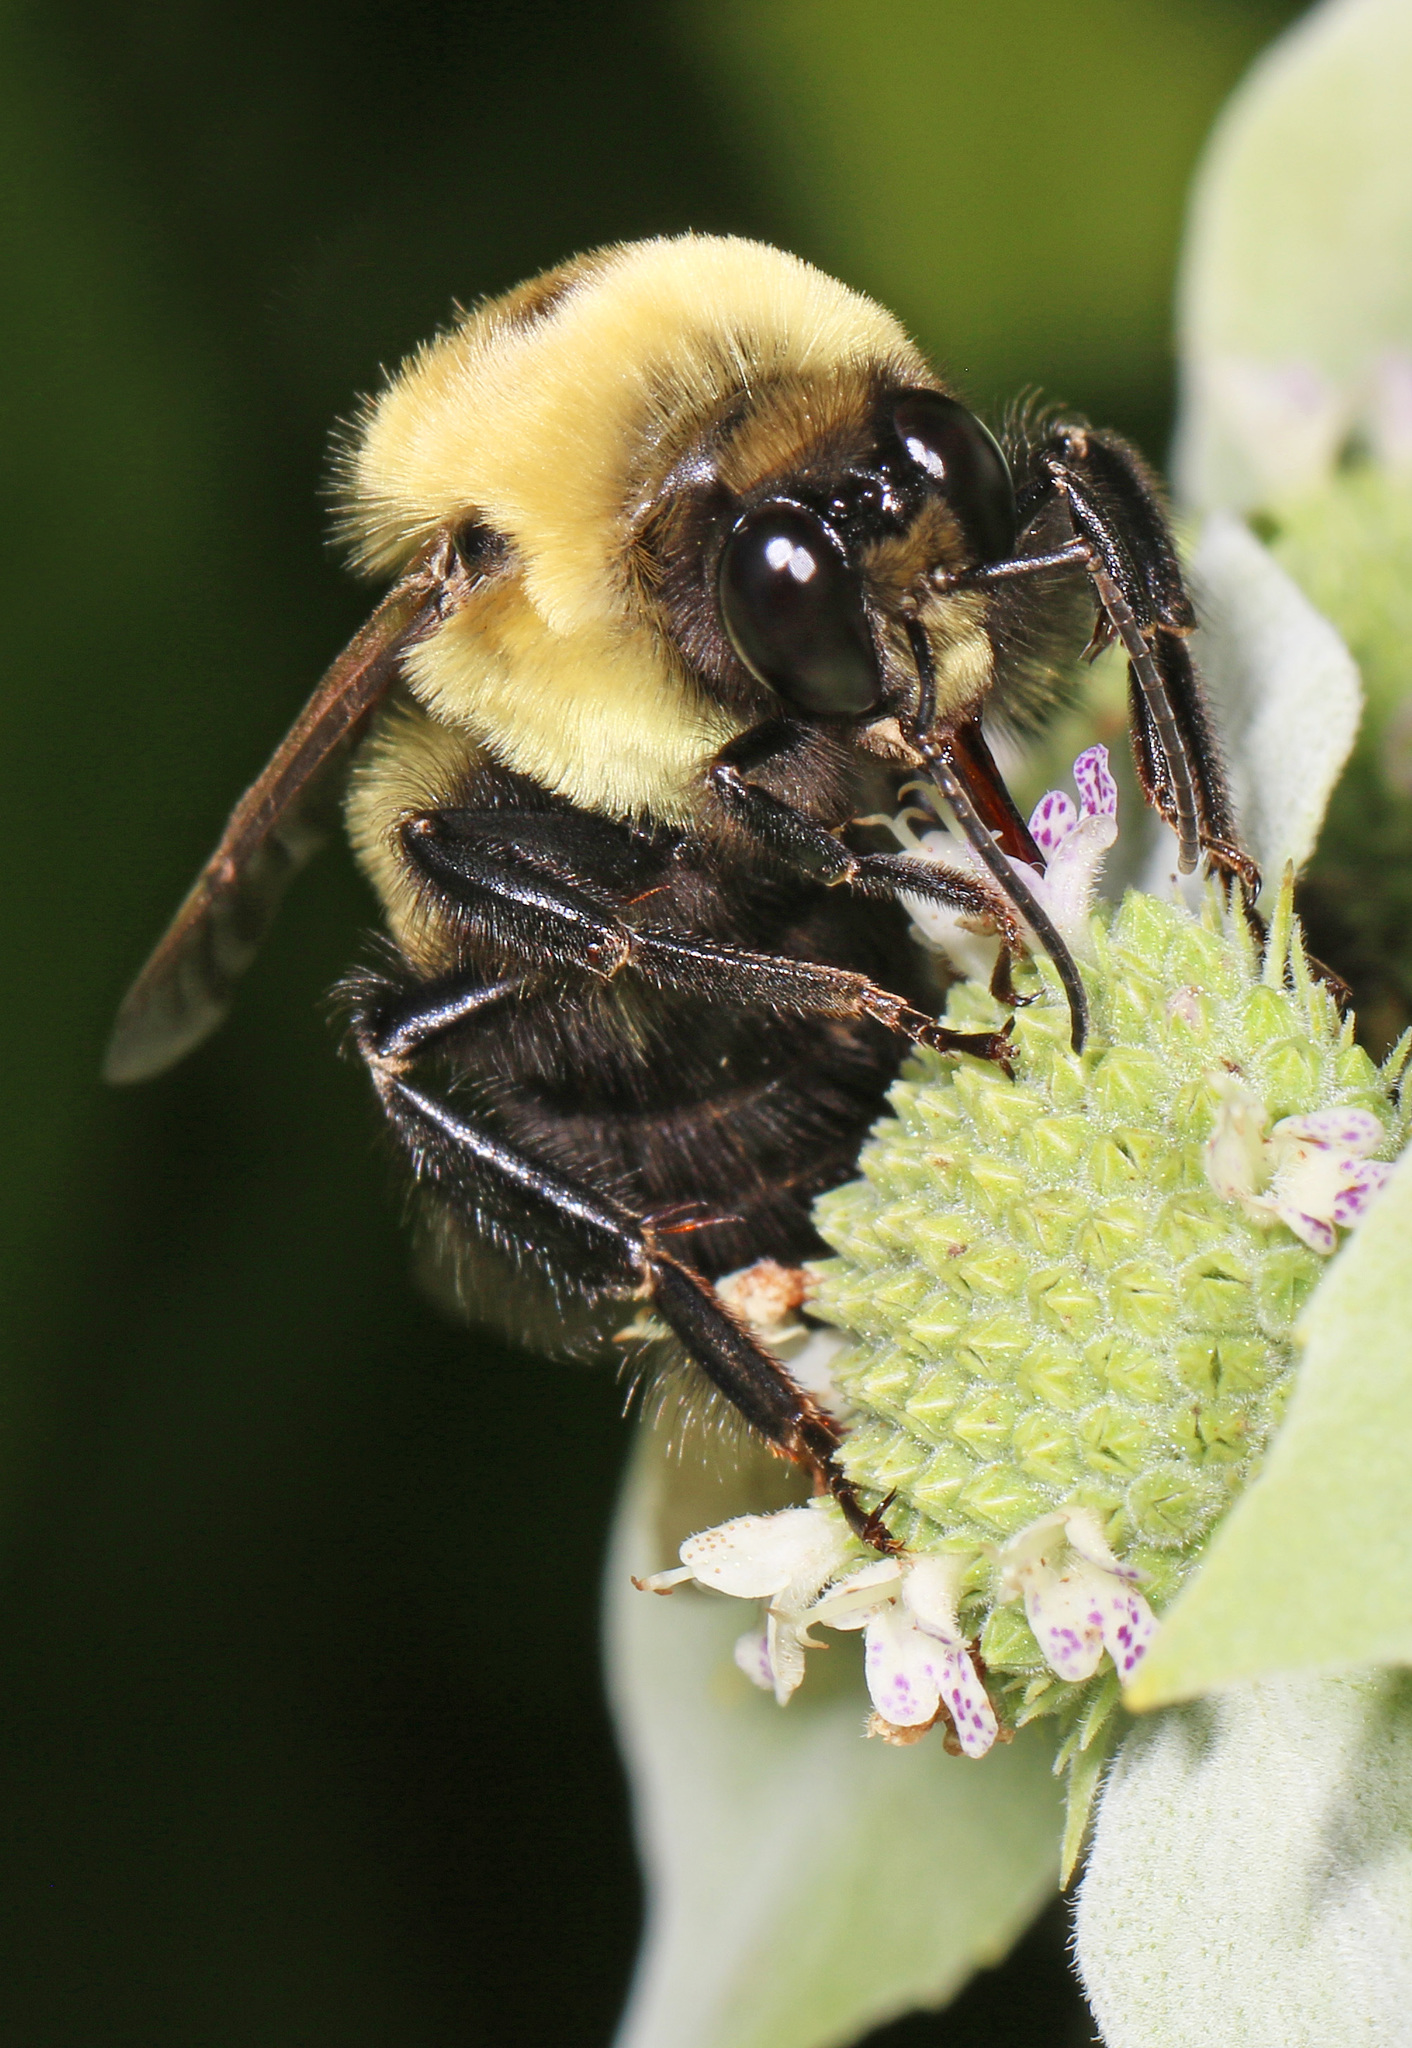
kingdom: Animalia
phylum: Arthropoda
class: Insecta
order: Hymenoptera
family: Apidae
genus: Bombus
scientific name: Bombus griseocollis
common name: Brown-belted bumble bee
